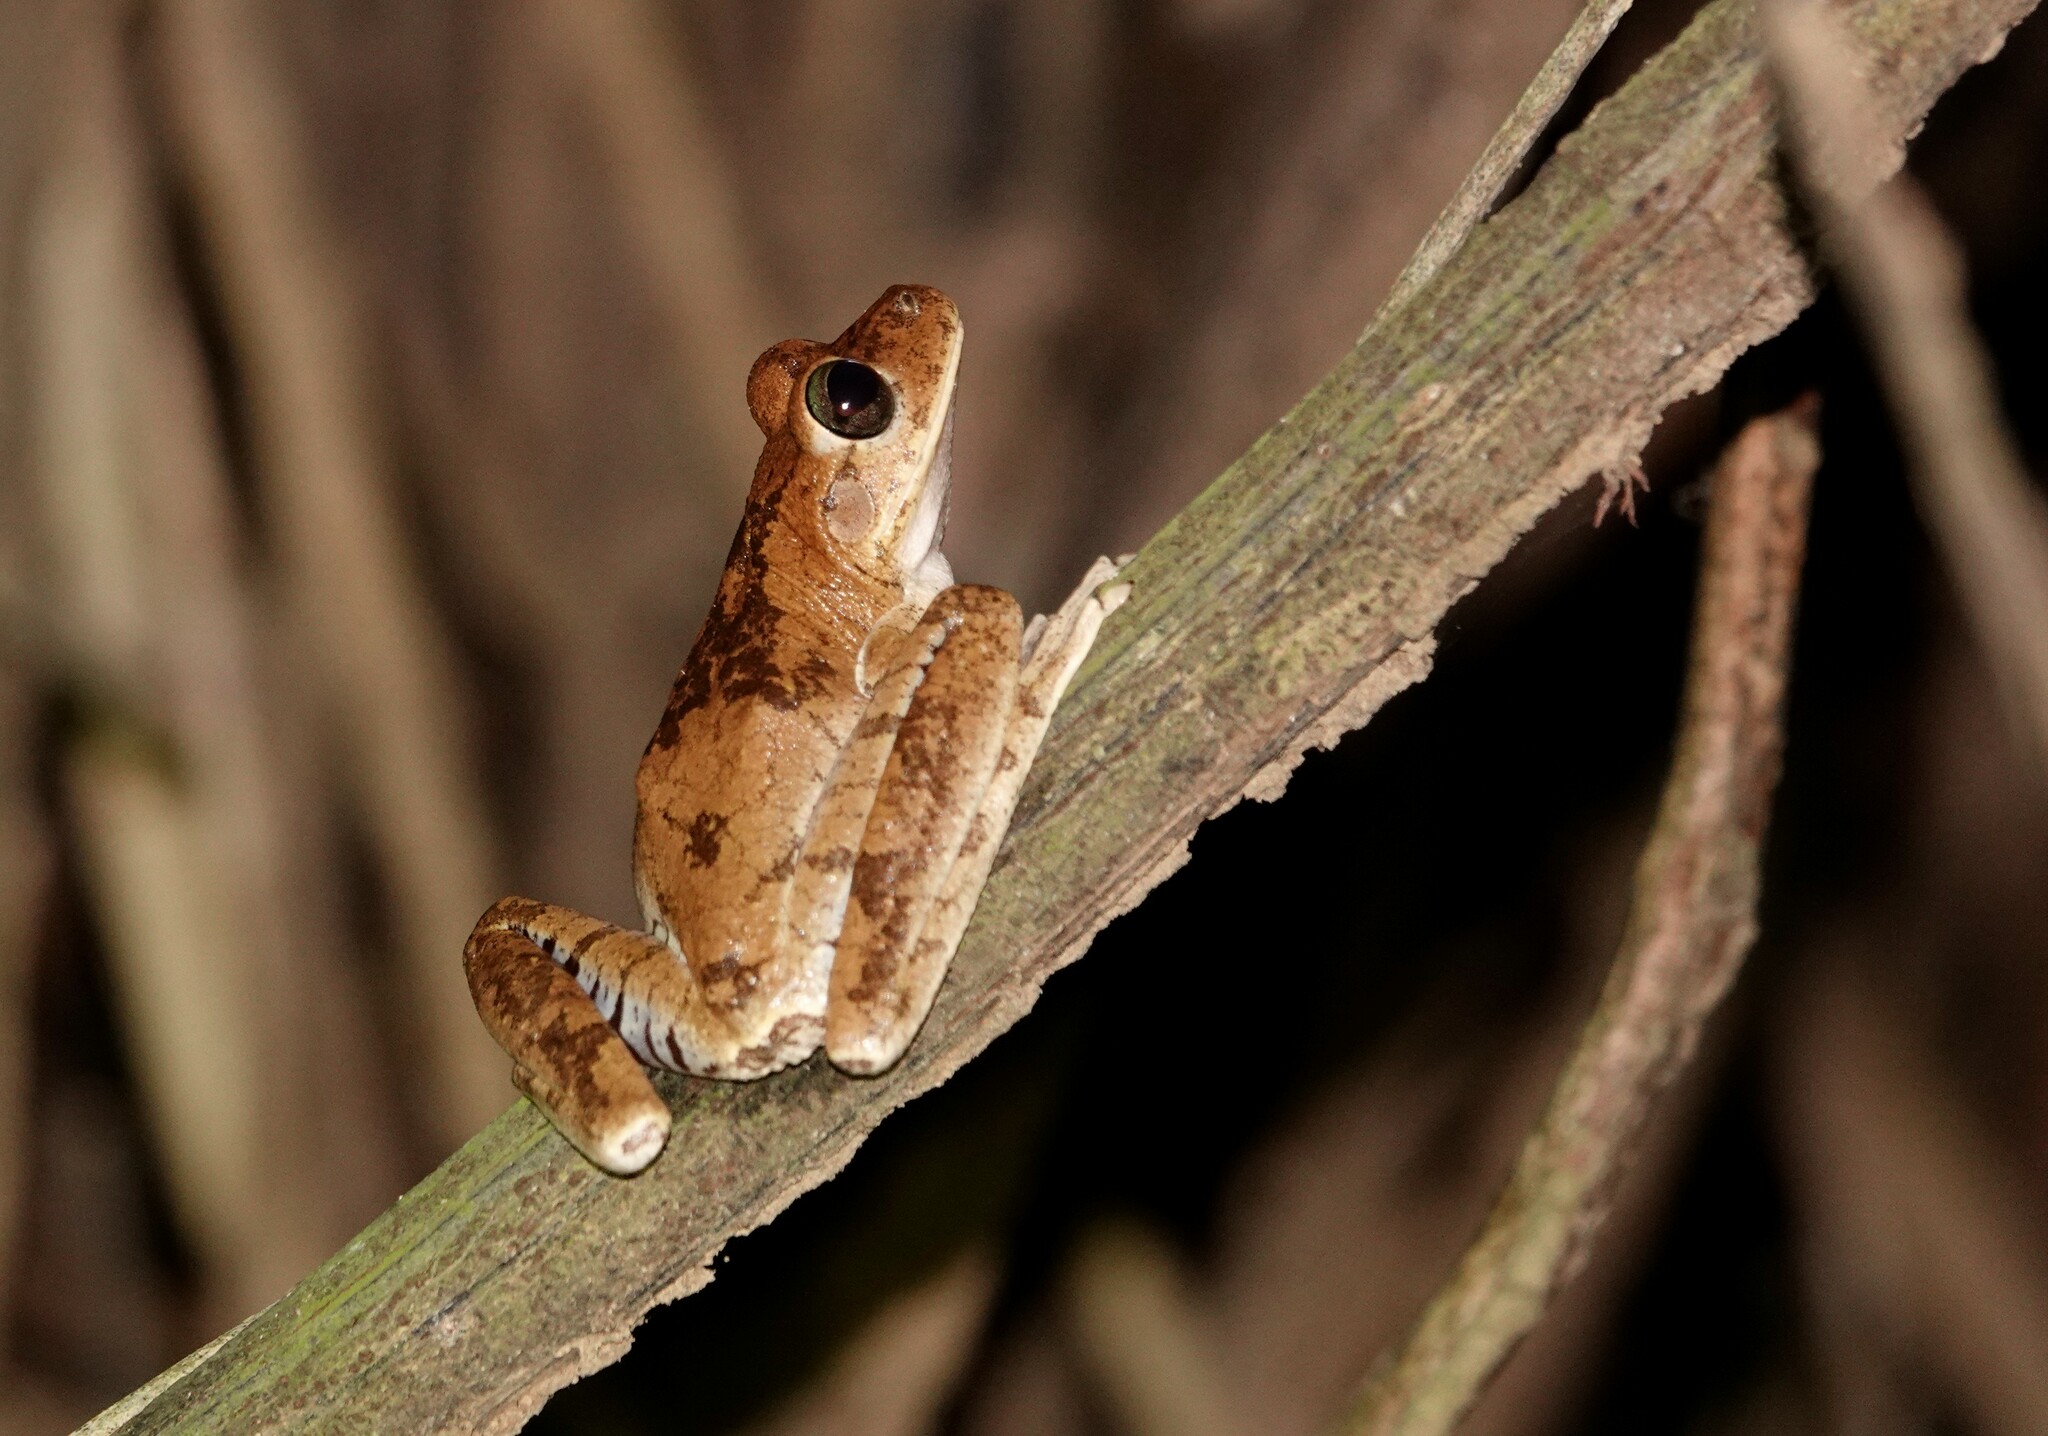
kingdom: Animalia
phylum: Chordata
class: Amphibia
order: Anura
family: Hylidae
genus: Boana
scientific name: Boana pugnax
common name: Chirique-flusse treefrog
